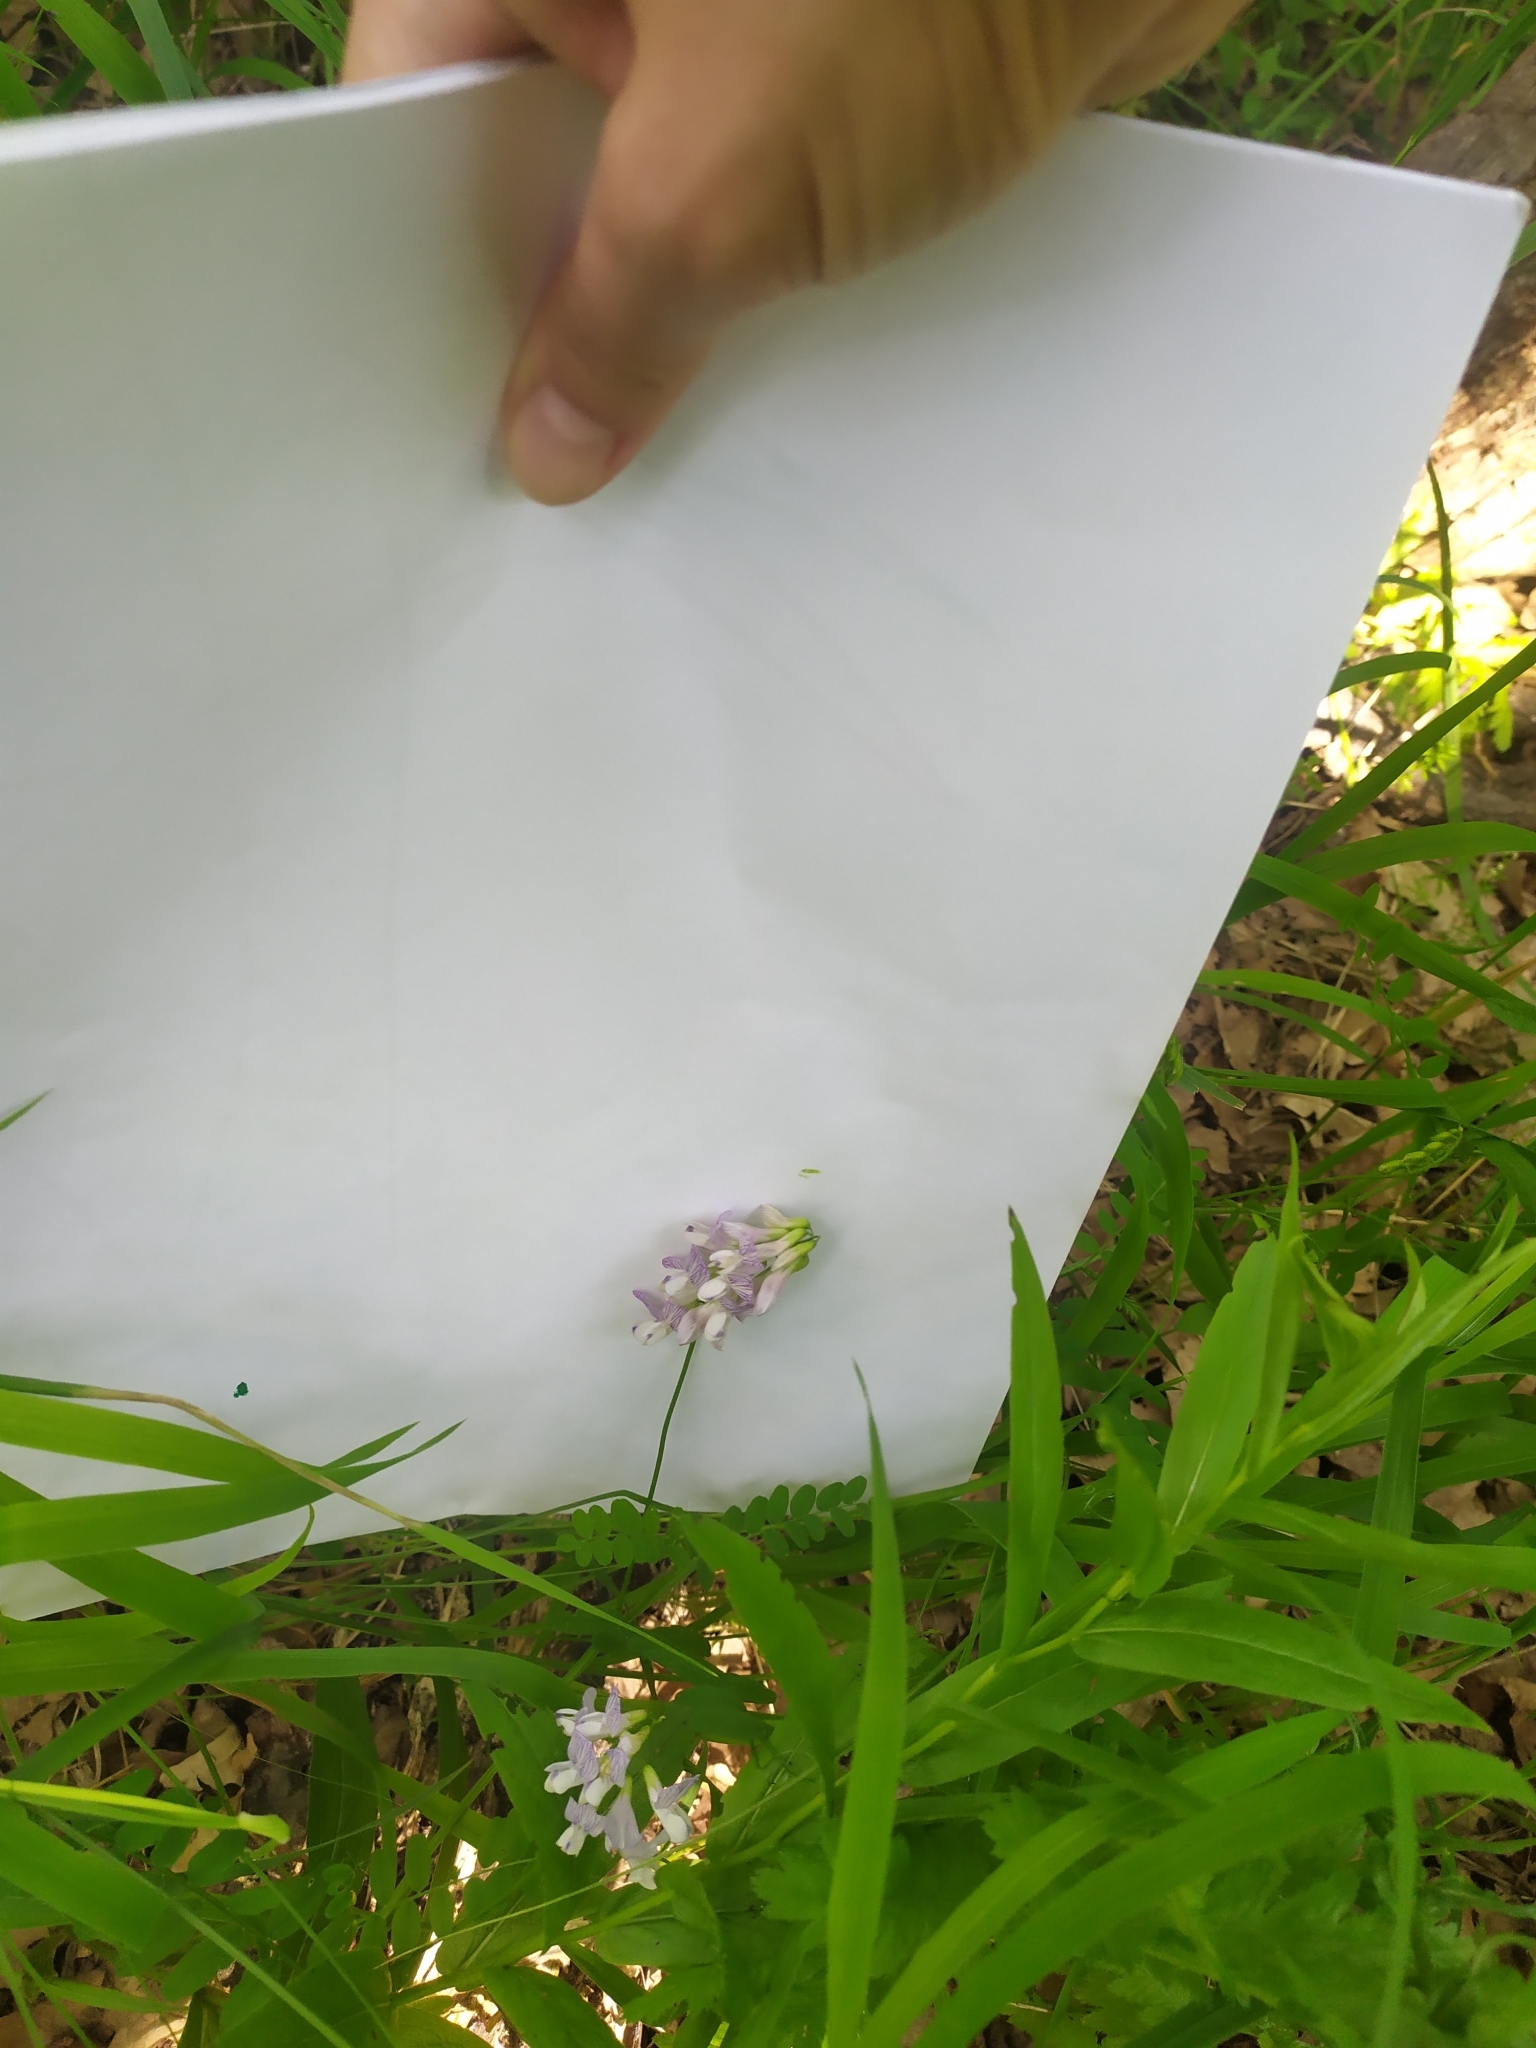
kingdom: Plantae
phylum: Tracheophyta
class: Magnoliopsida
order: Fabales
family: Fabaceae
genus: Vicia
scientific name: Vicia sylvatica
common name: Wood vetch
